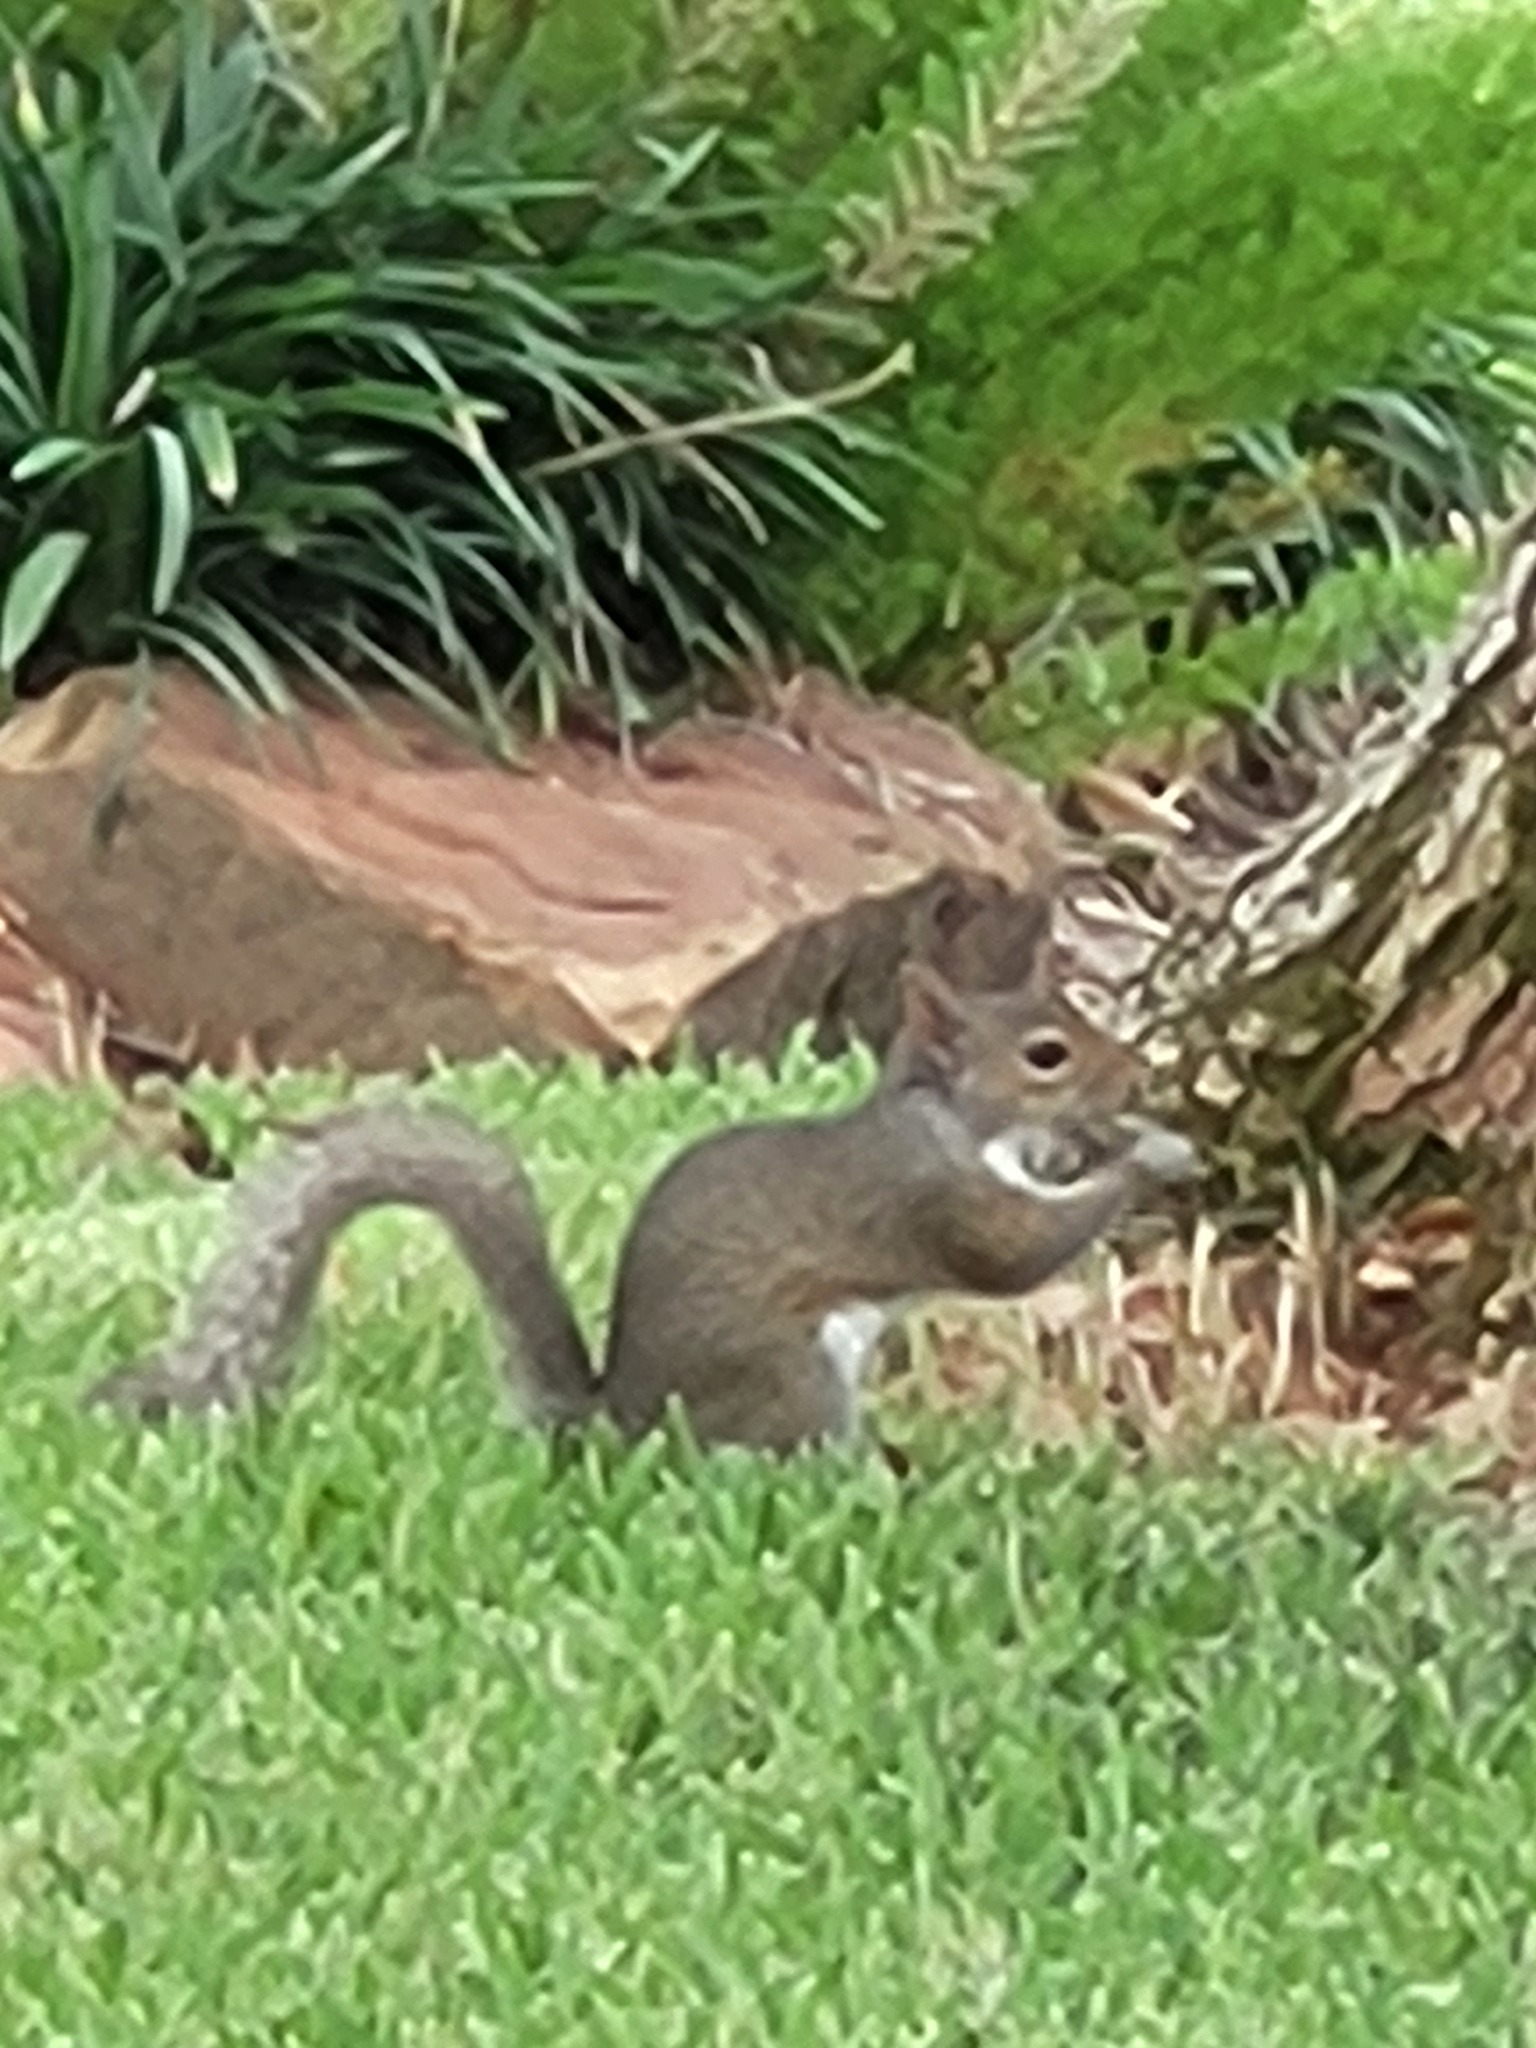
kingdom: Animalia
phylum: Chordata
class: Mammalia
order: Rodentia
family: Sciuridae
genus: Sciurus
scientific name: Sciurus carolinensis
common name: Eastern gray squirrel
